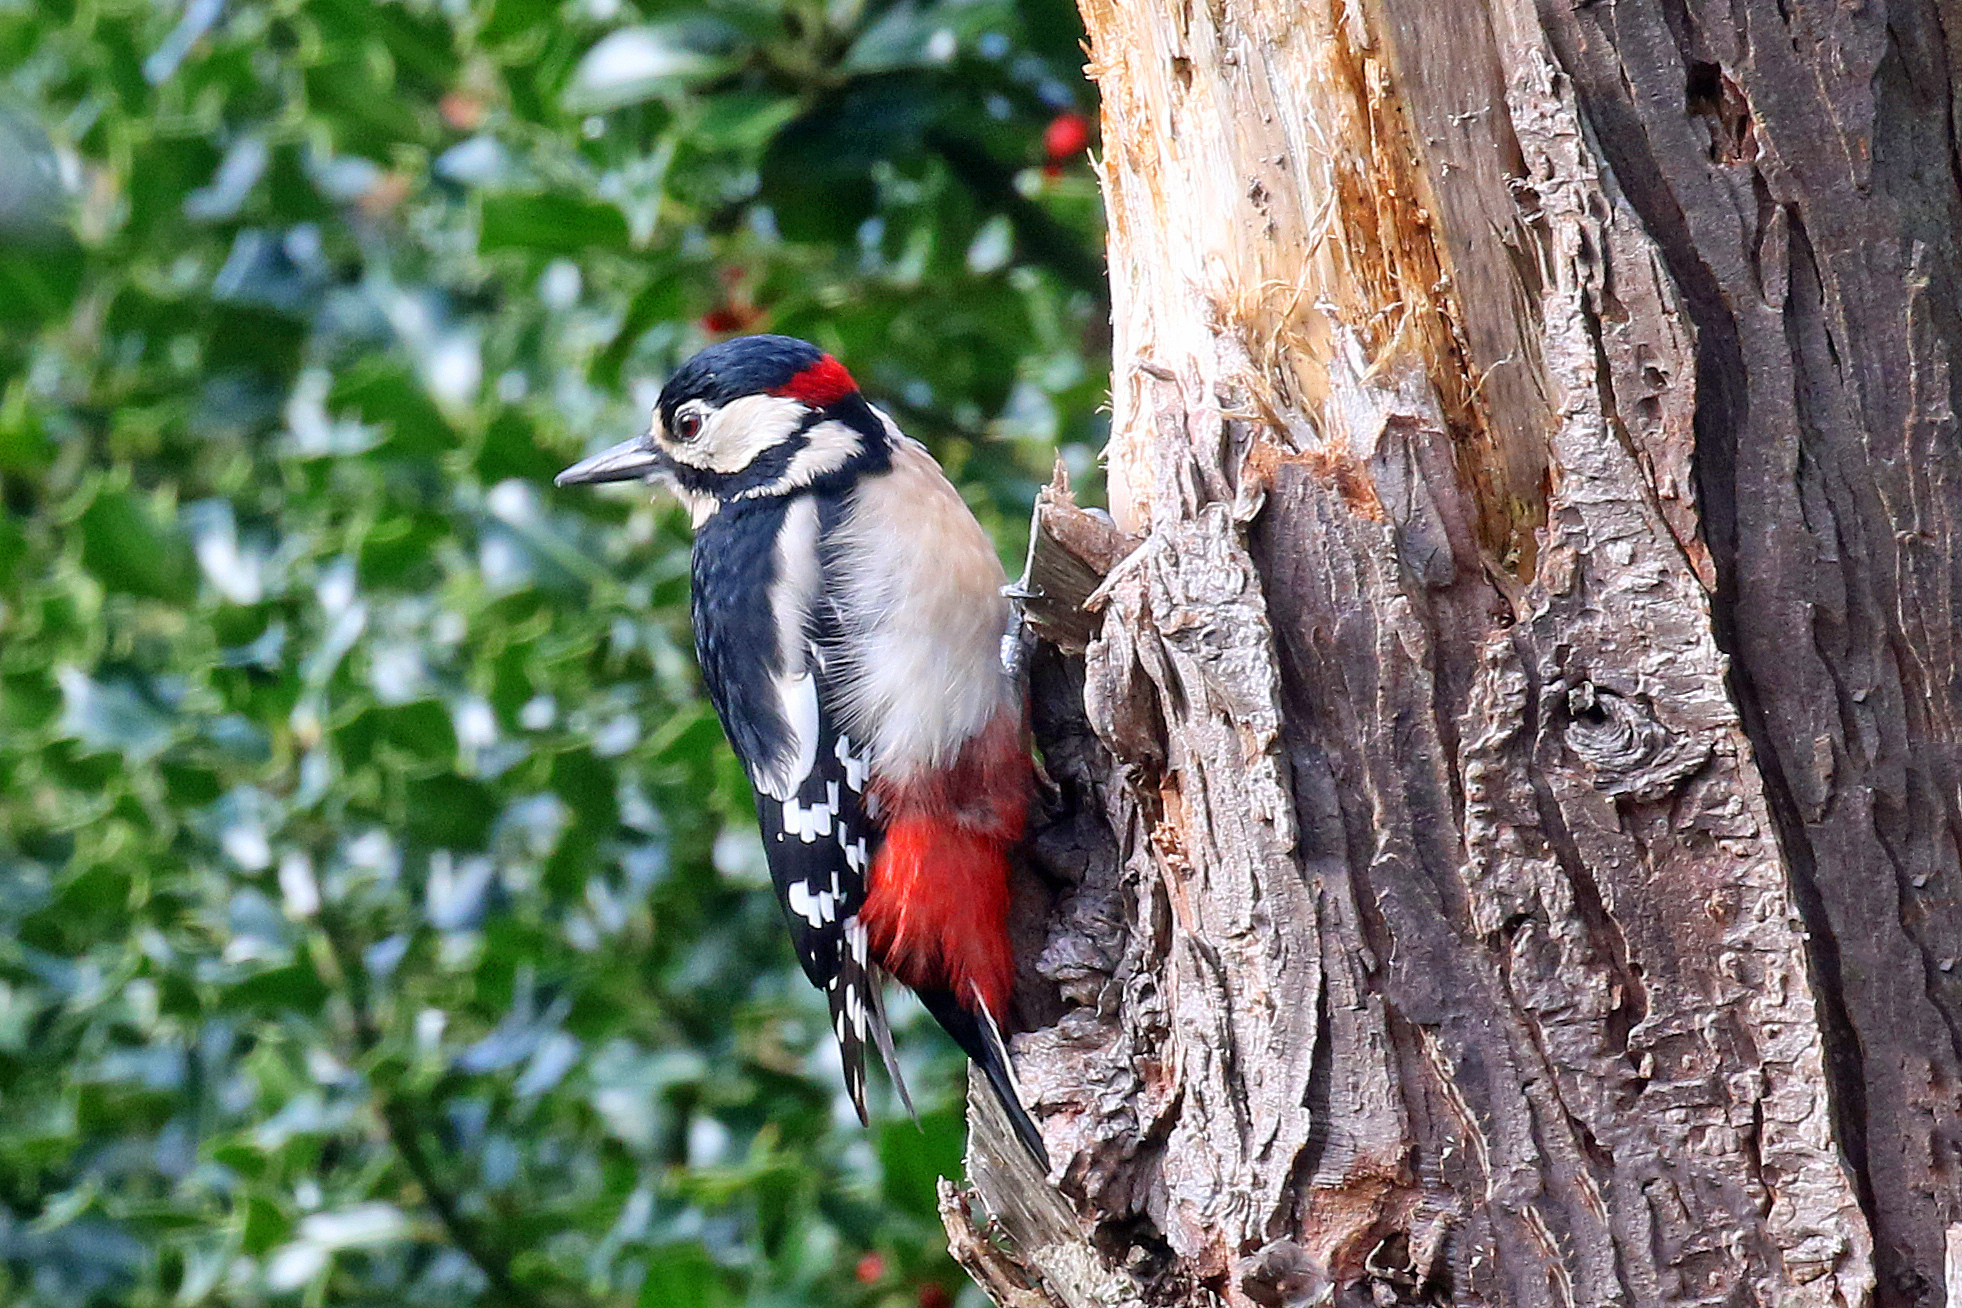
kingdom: Animalia
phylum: Chordata
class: Aves
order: Piciformes
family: Picidae
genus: Dendrocopos
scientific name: Dendrocopos major
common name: Great spotted woodpecker
